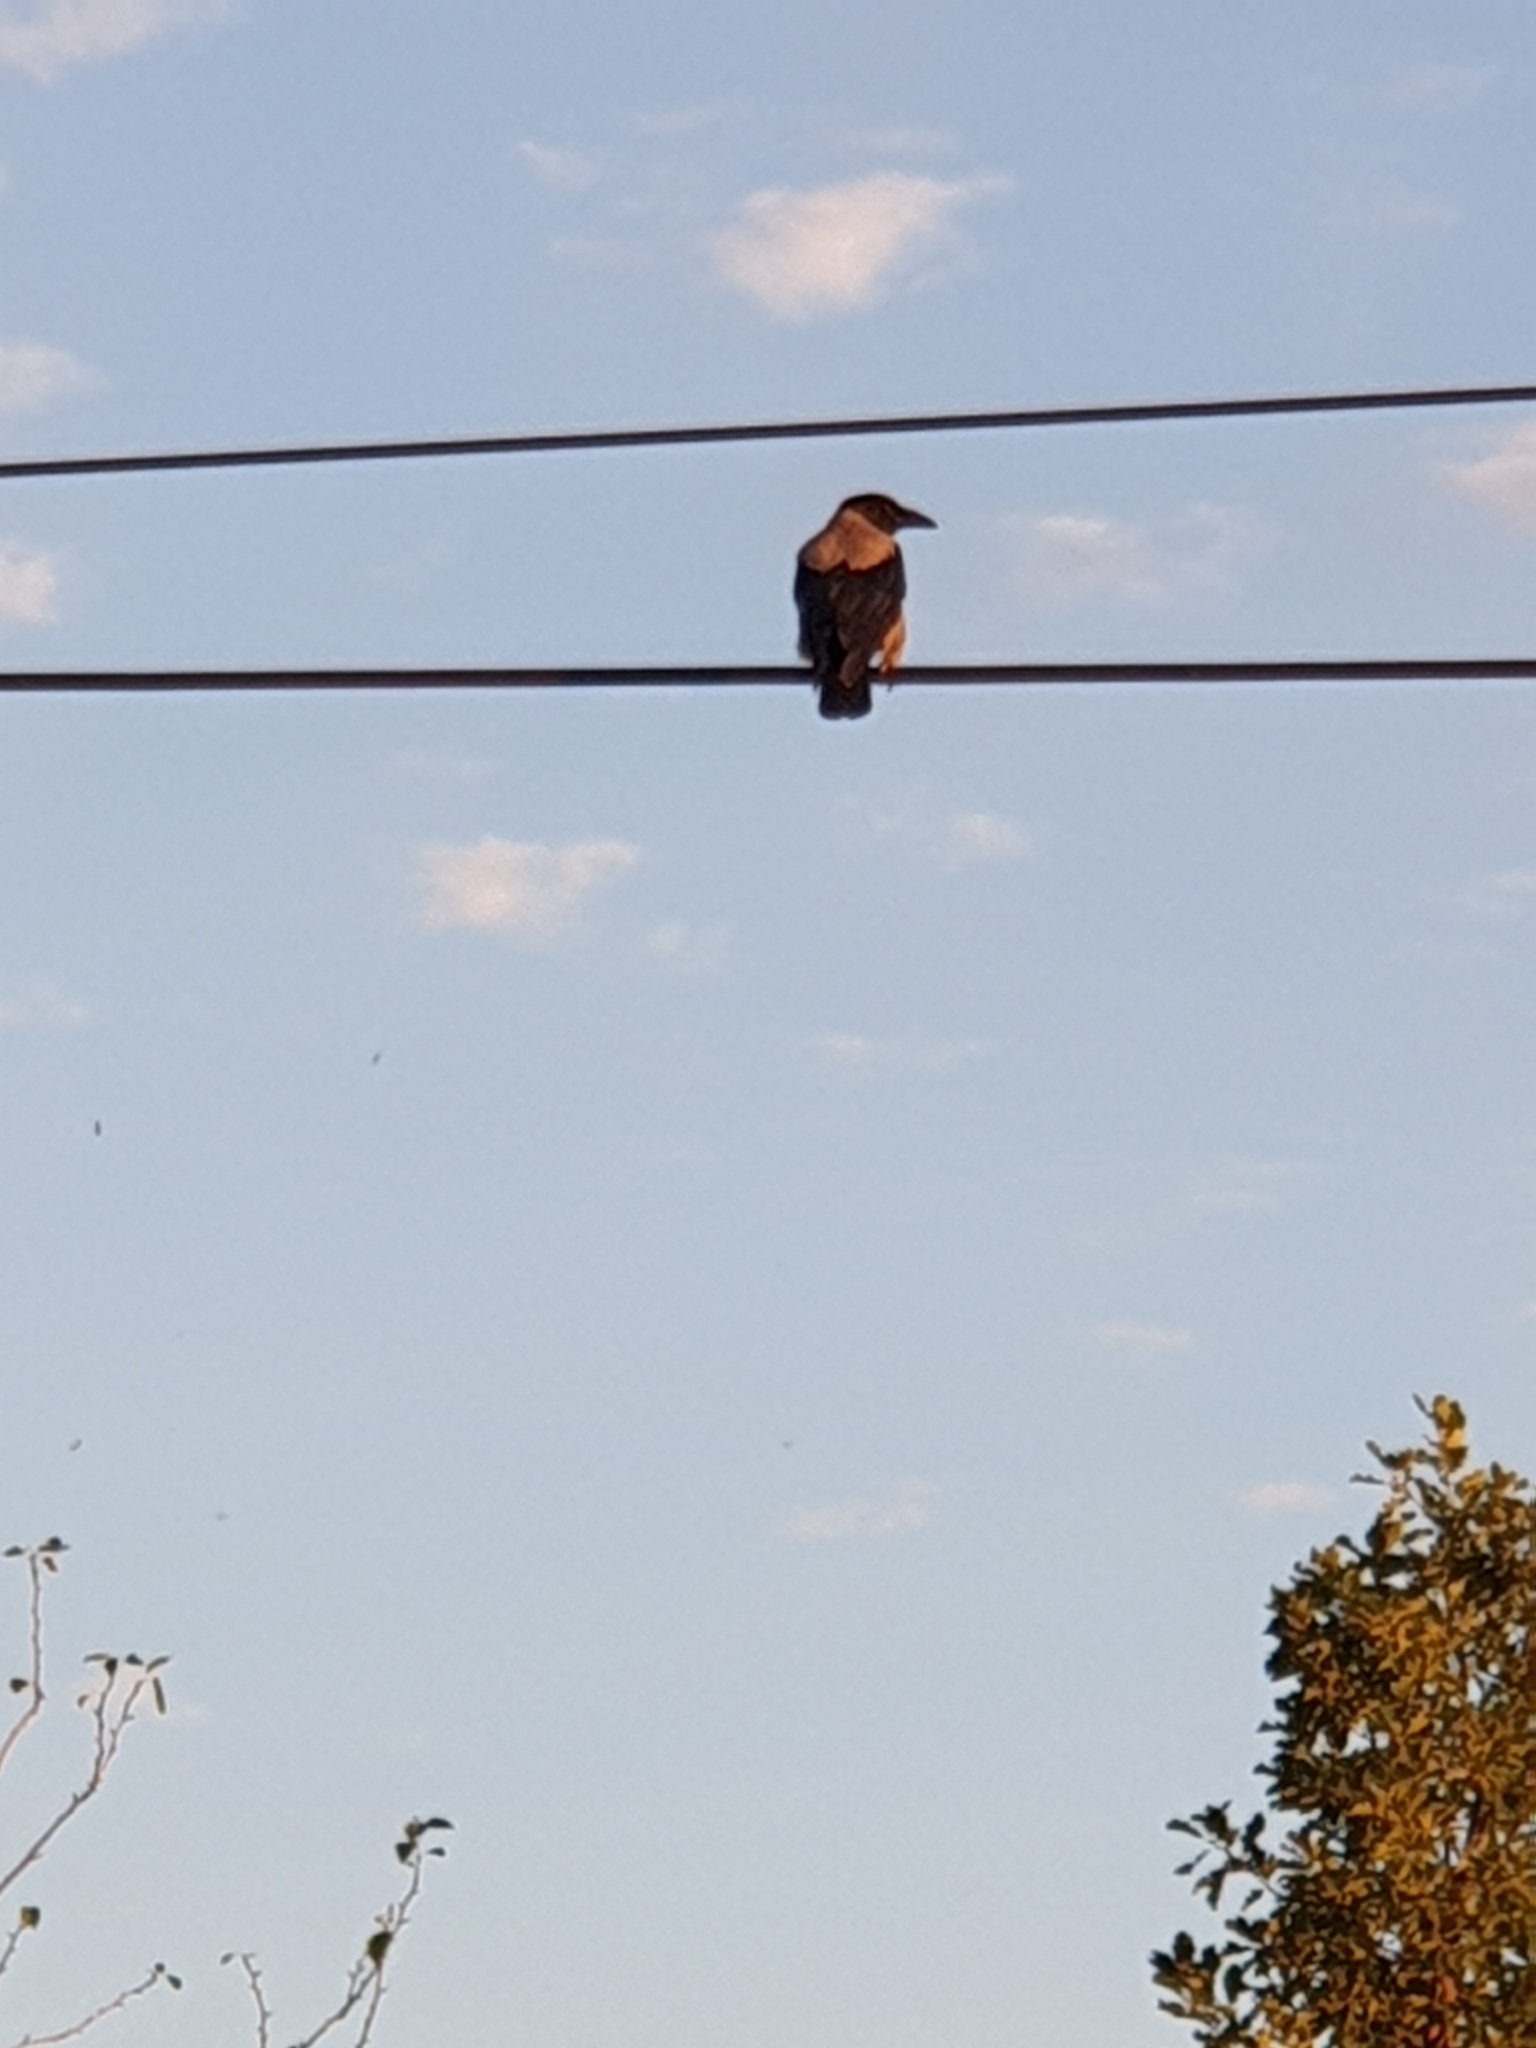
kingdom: Animalia
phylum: Chordata
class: Aves
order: Passeriformes
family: Corvidae
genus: Corvus
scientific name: Corvus cornix
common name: Hooded crow
